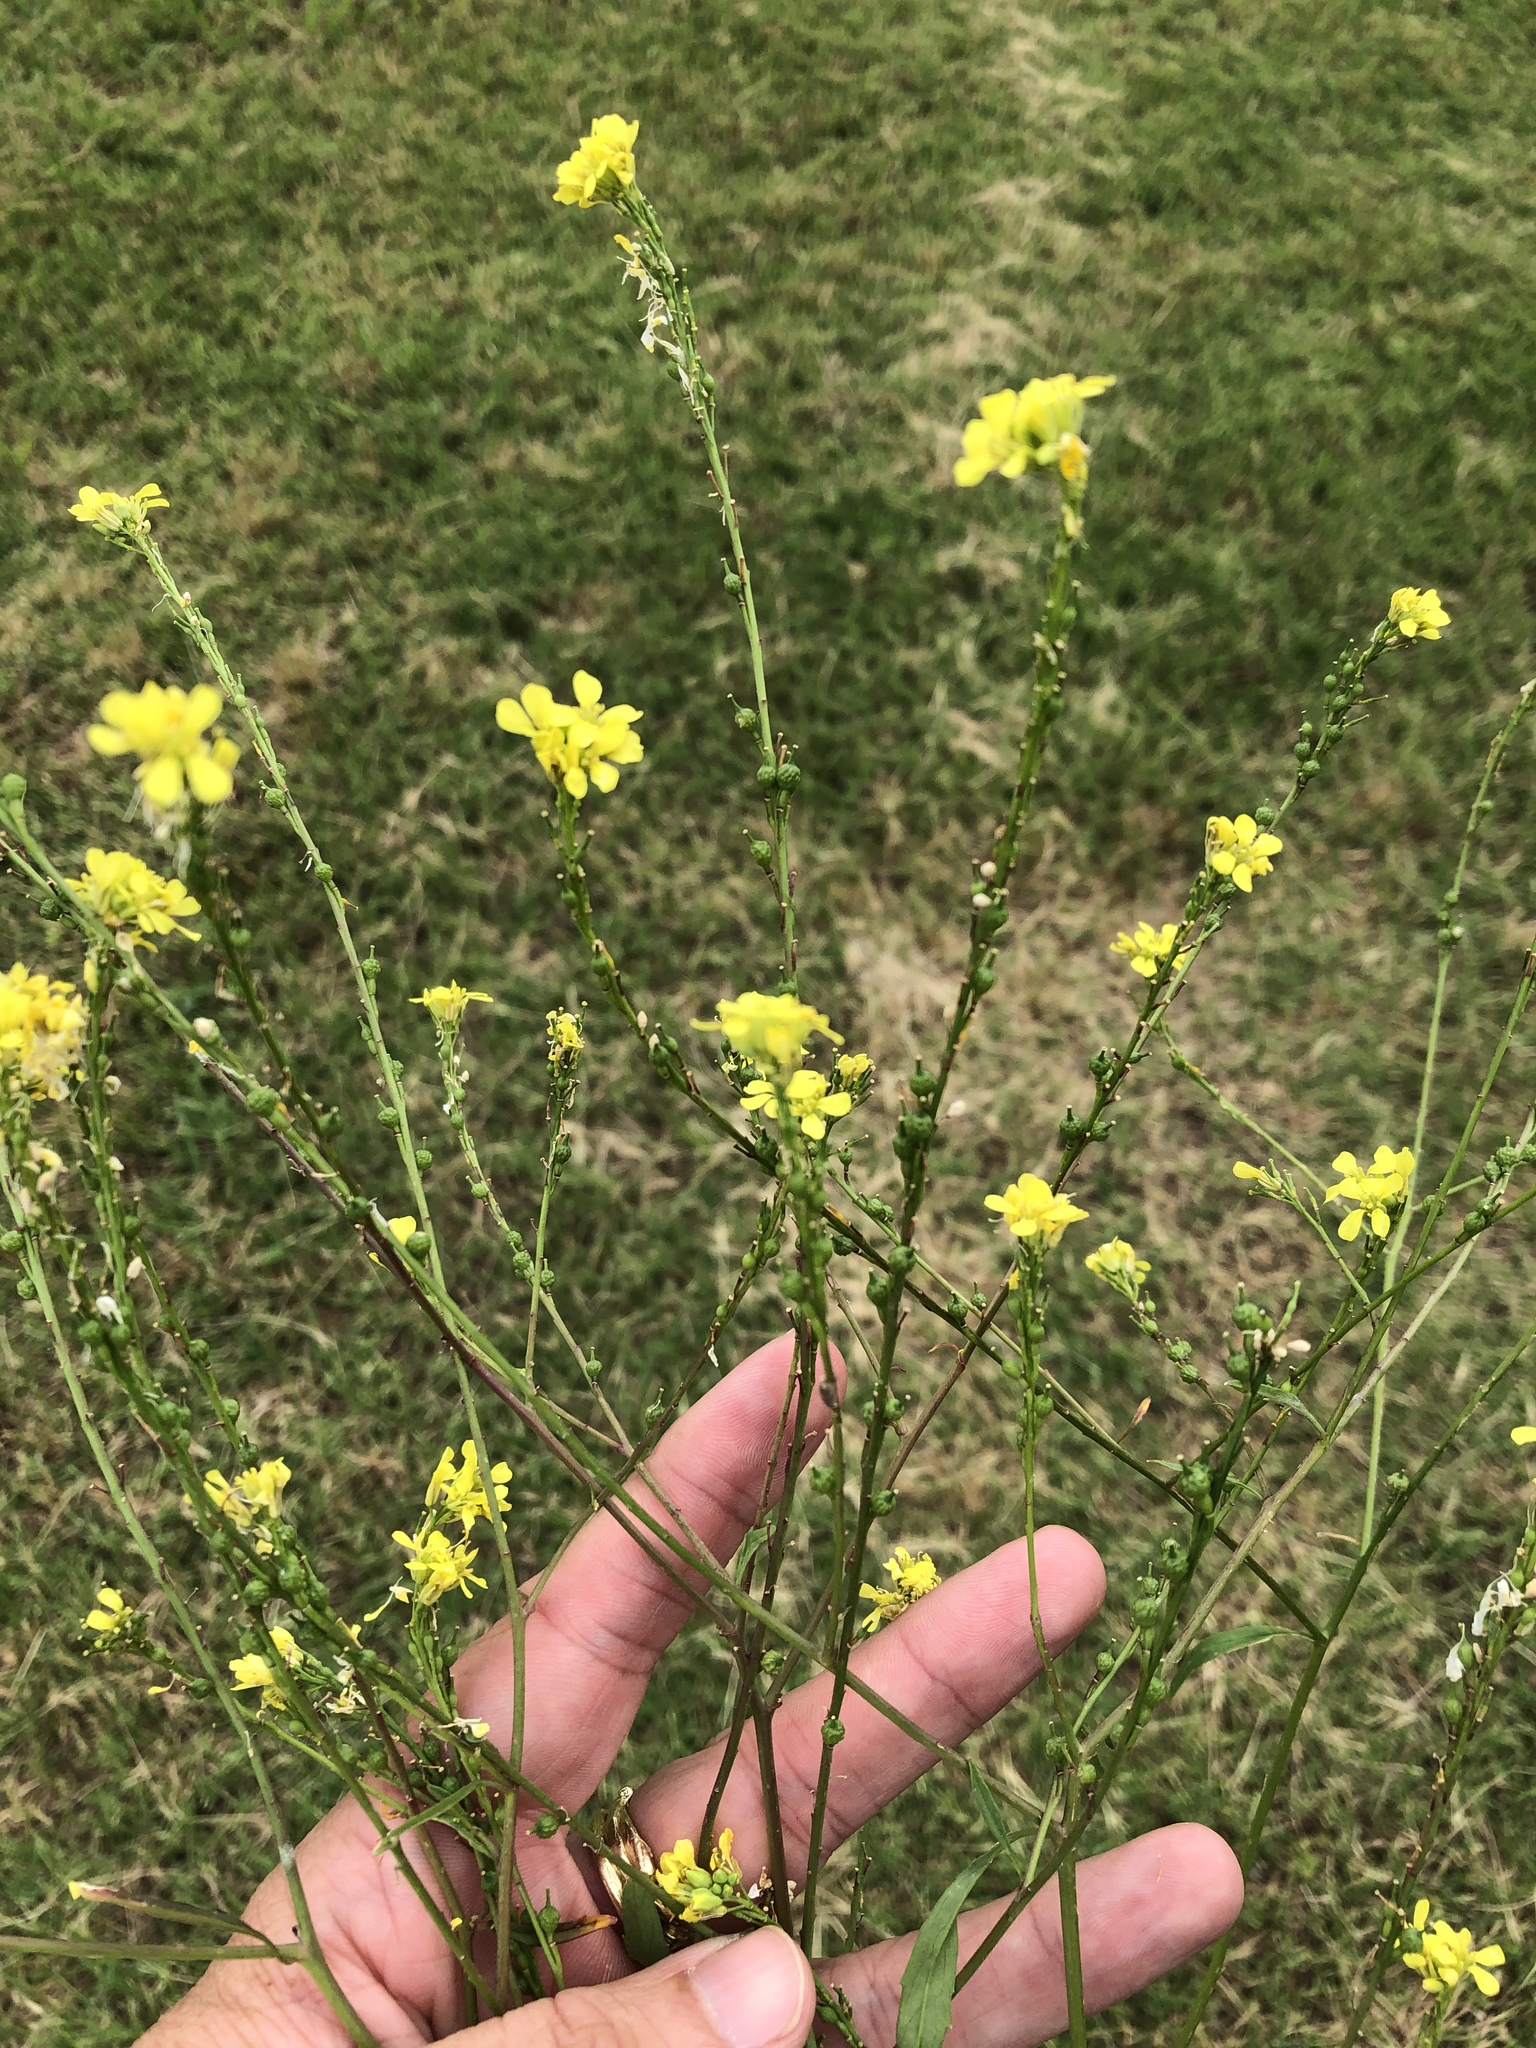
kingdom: Plantae
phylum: Tracheophyta
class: Magnoliopsida
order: Brassicales
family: Brassicaceae
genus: Rapistrum
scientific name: Rapistrum rugosum
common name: Annual bastardcabbage
